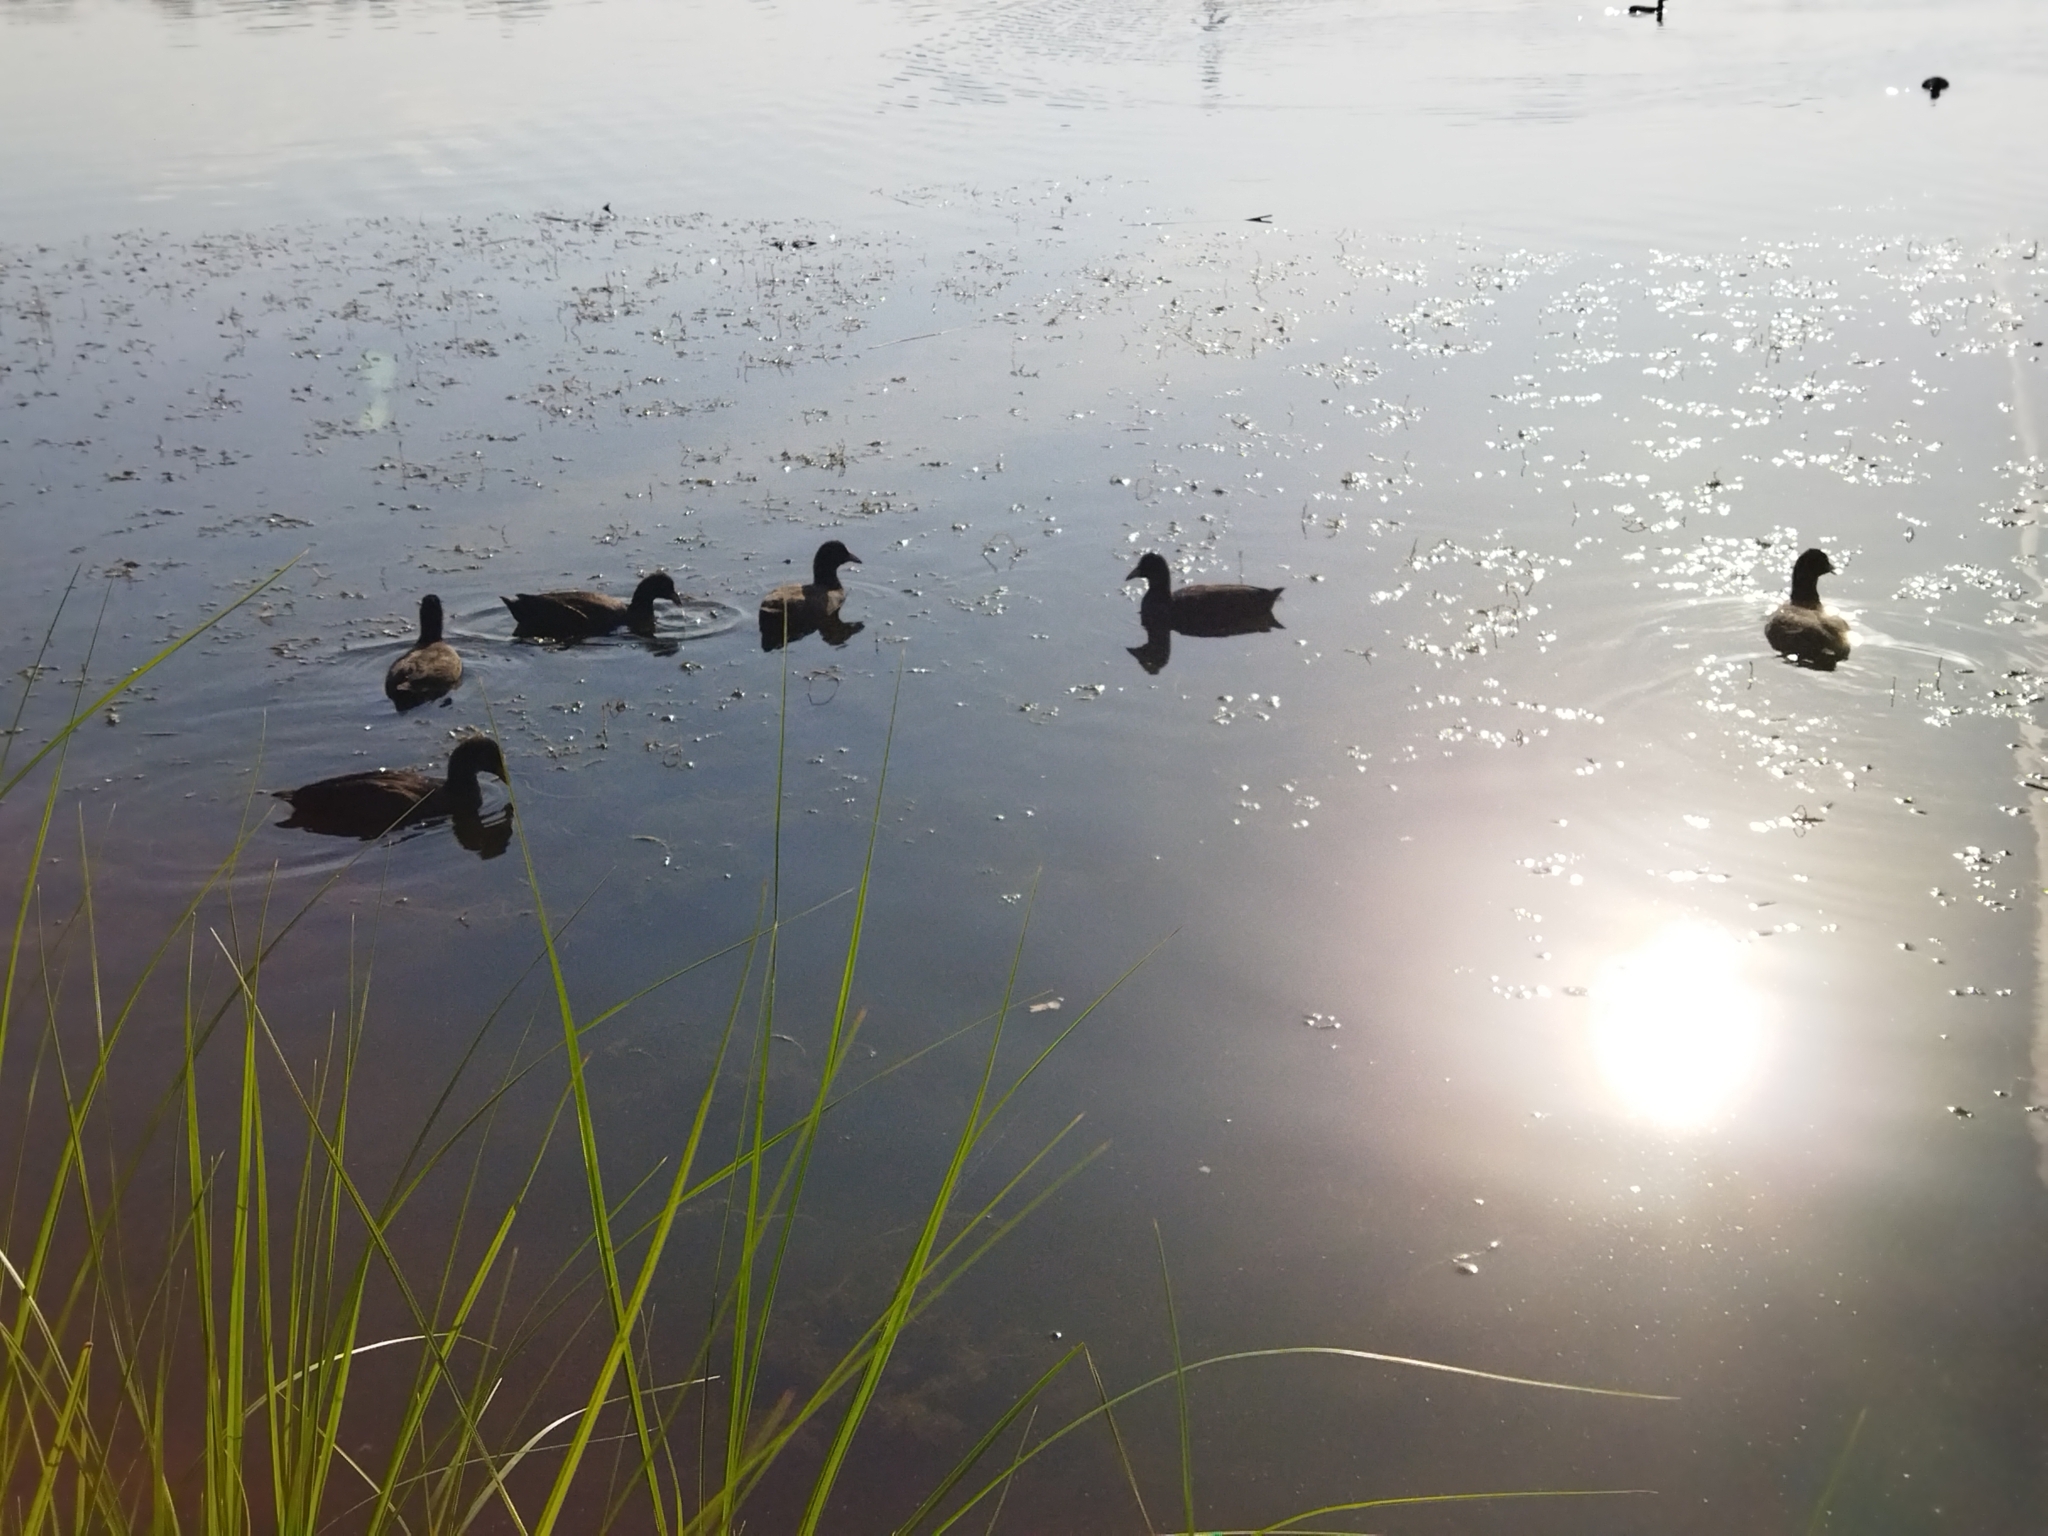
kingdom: Animalia
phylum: Chordata
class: Aves
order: Gruiformes
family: Rallidae
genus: Fulica
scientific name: Fulica atra
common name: Eurasian coot
